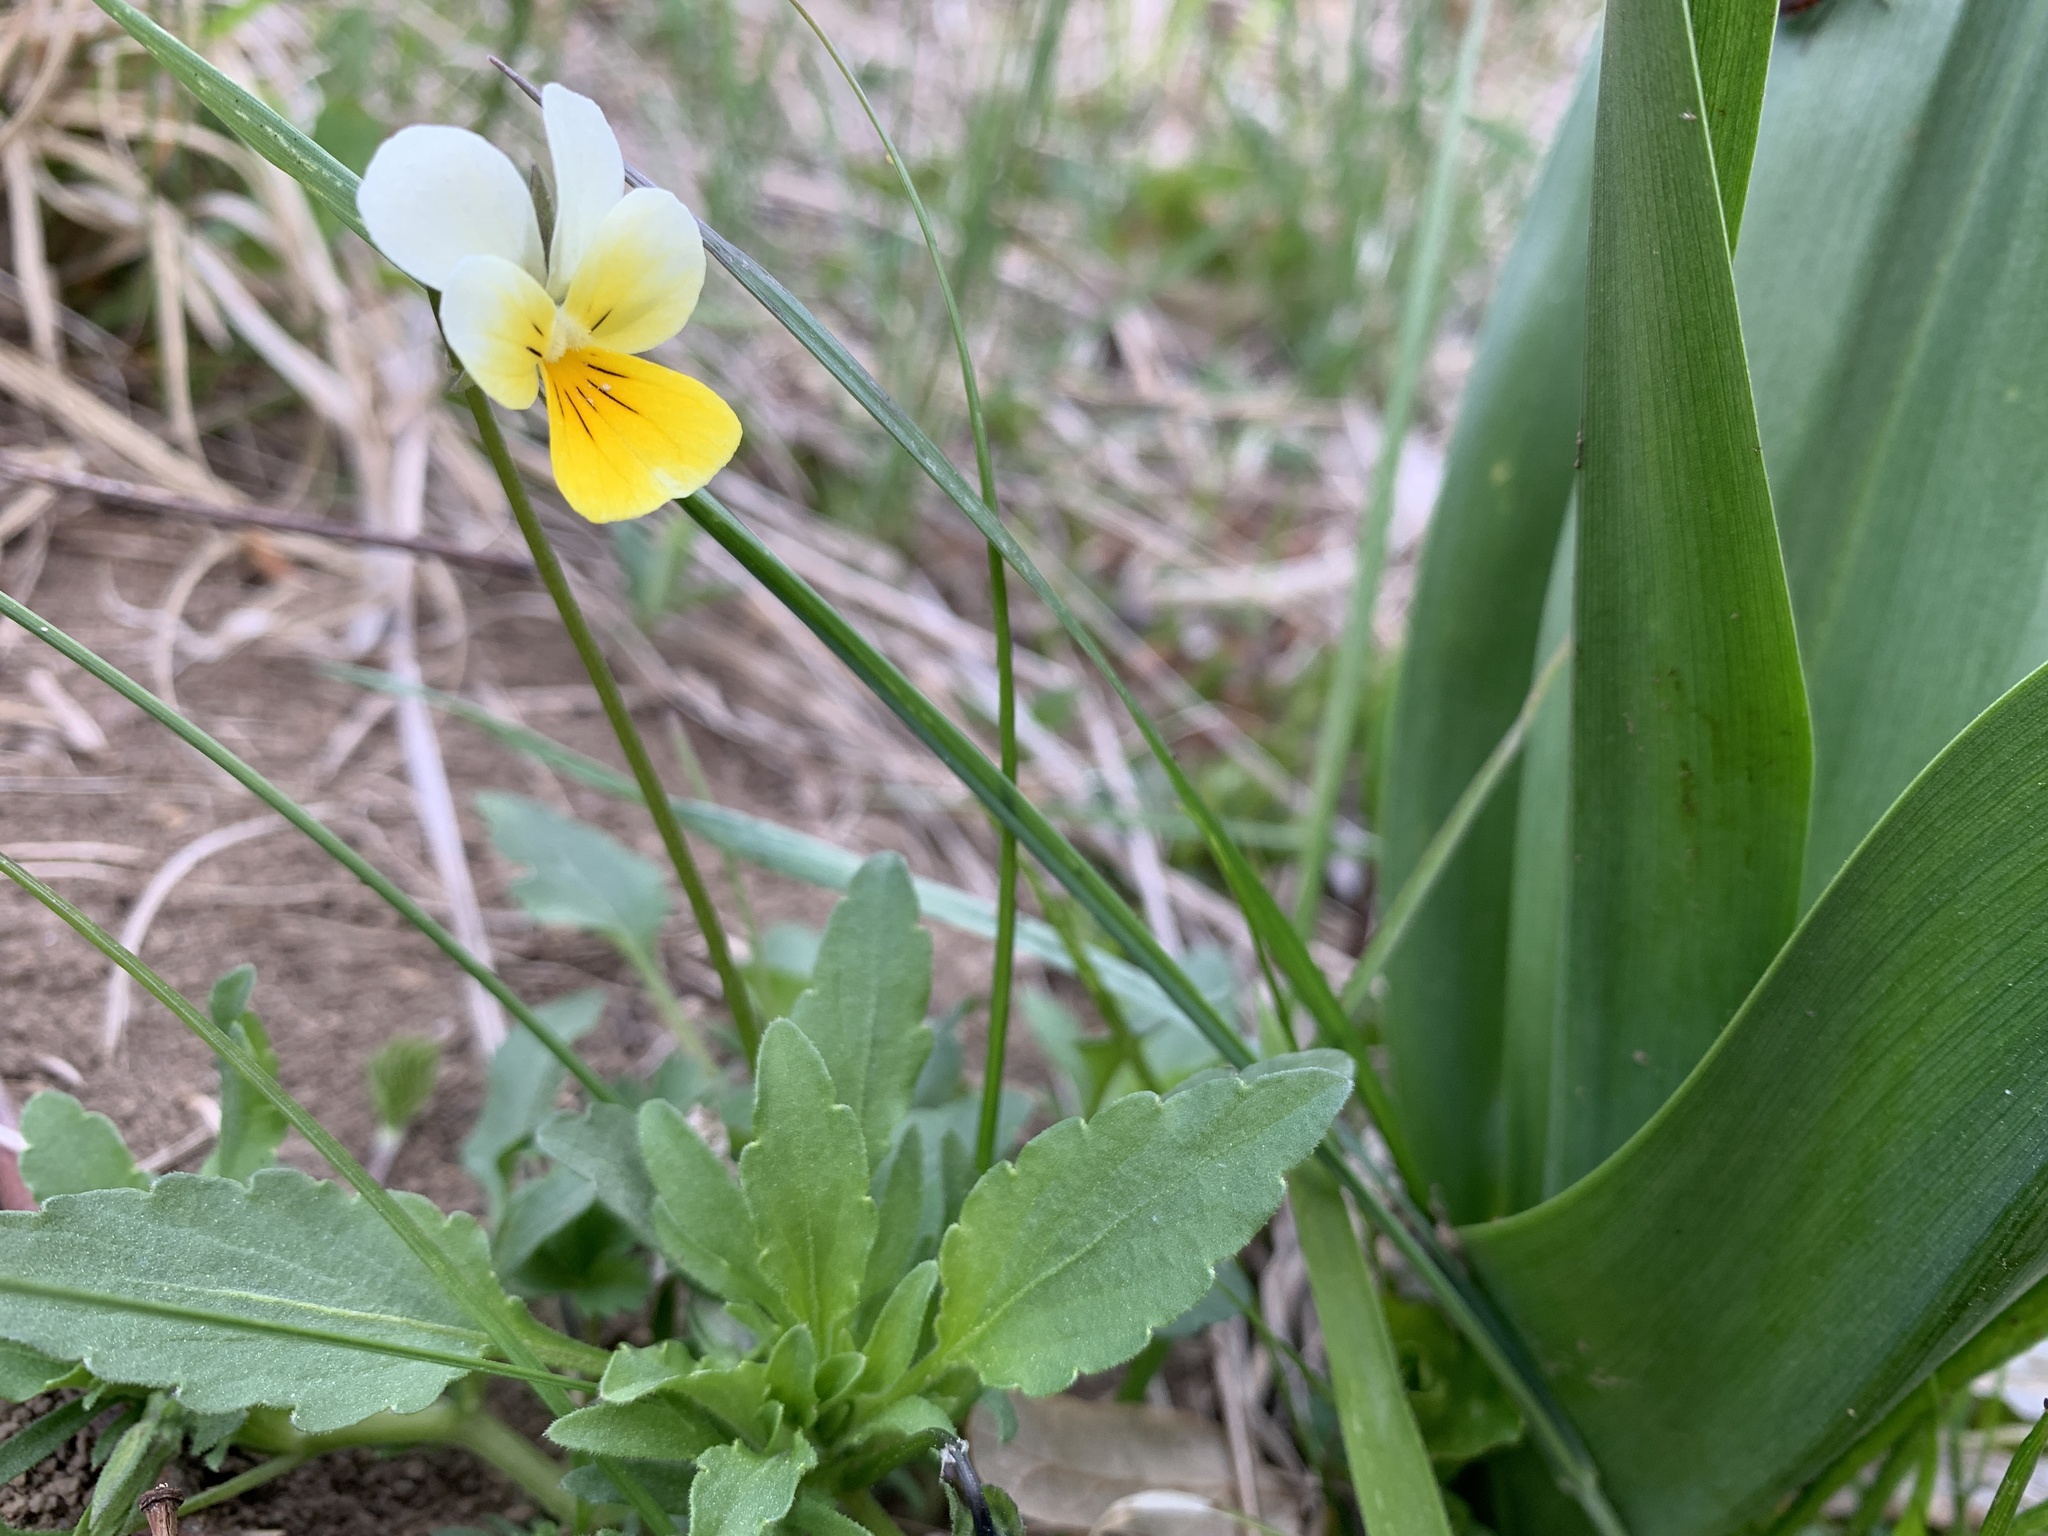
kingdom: Plantae
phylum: Tracheophyta
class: Magnoliopsida
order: Malpighiales
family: Violaceae
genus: Viola
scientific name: Viola arvensis
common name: Field pansy
